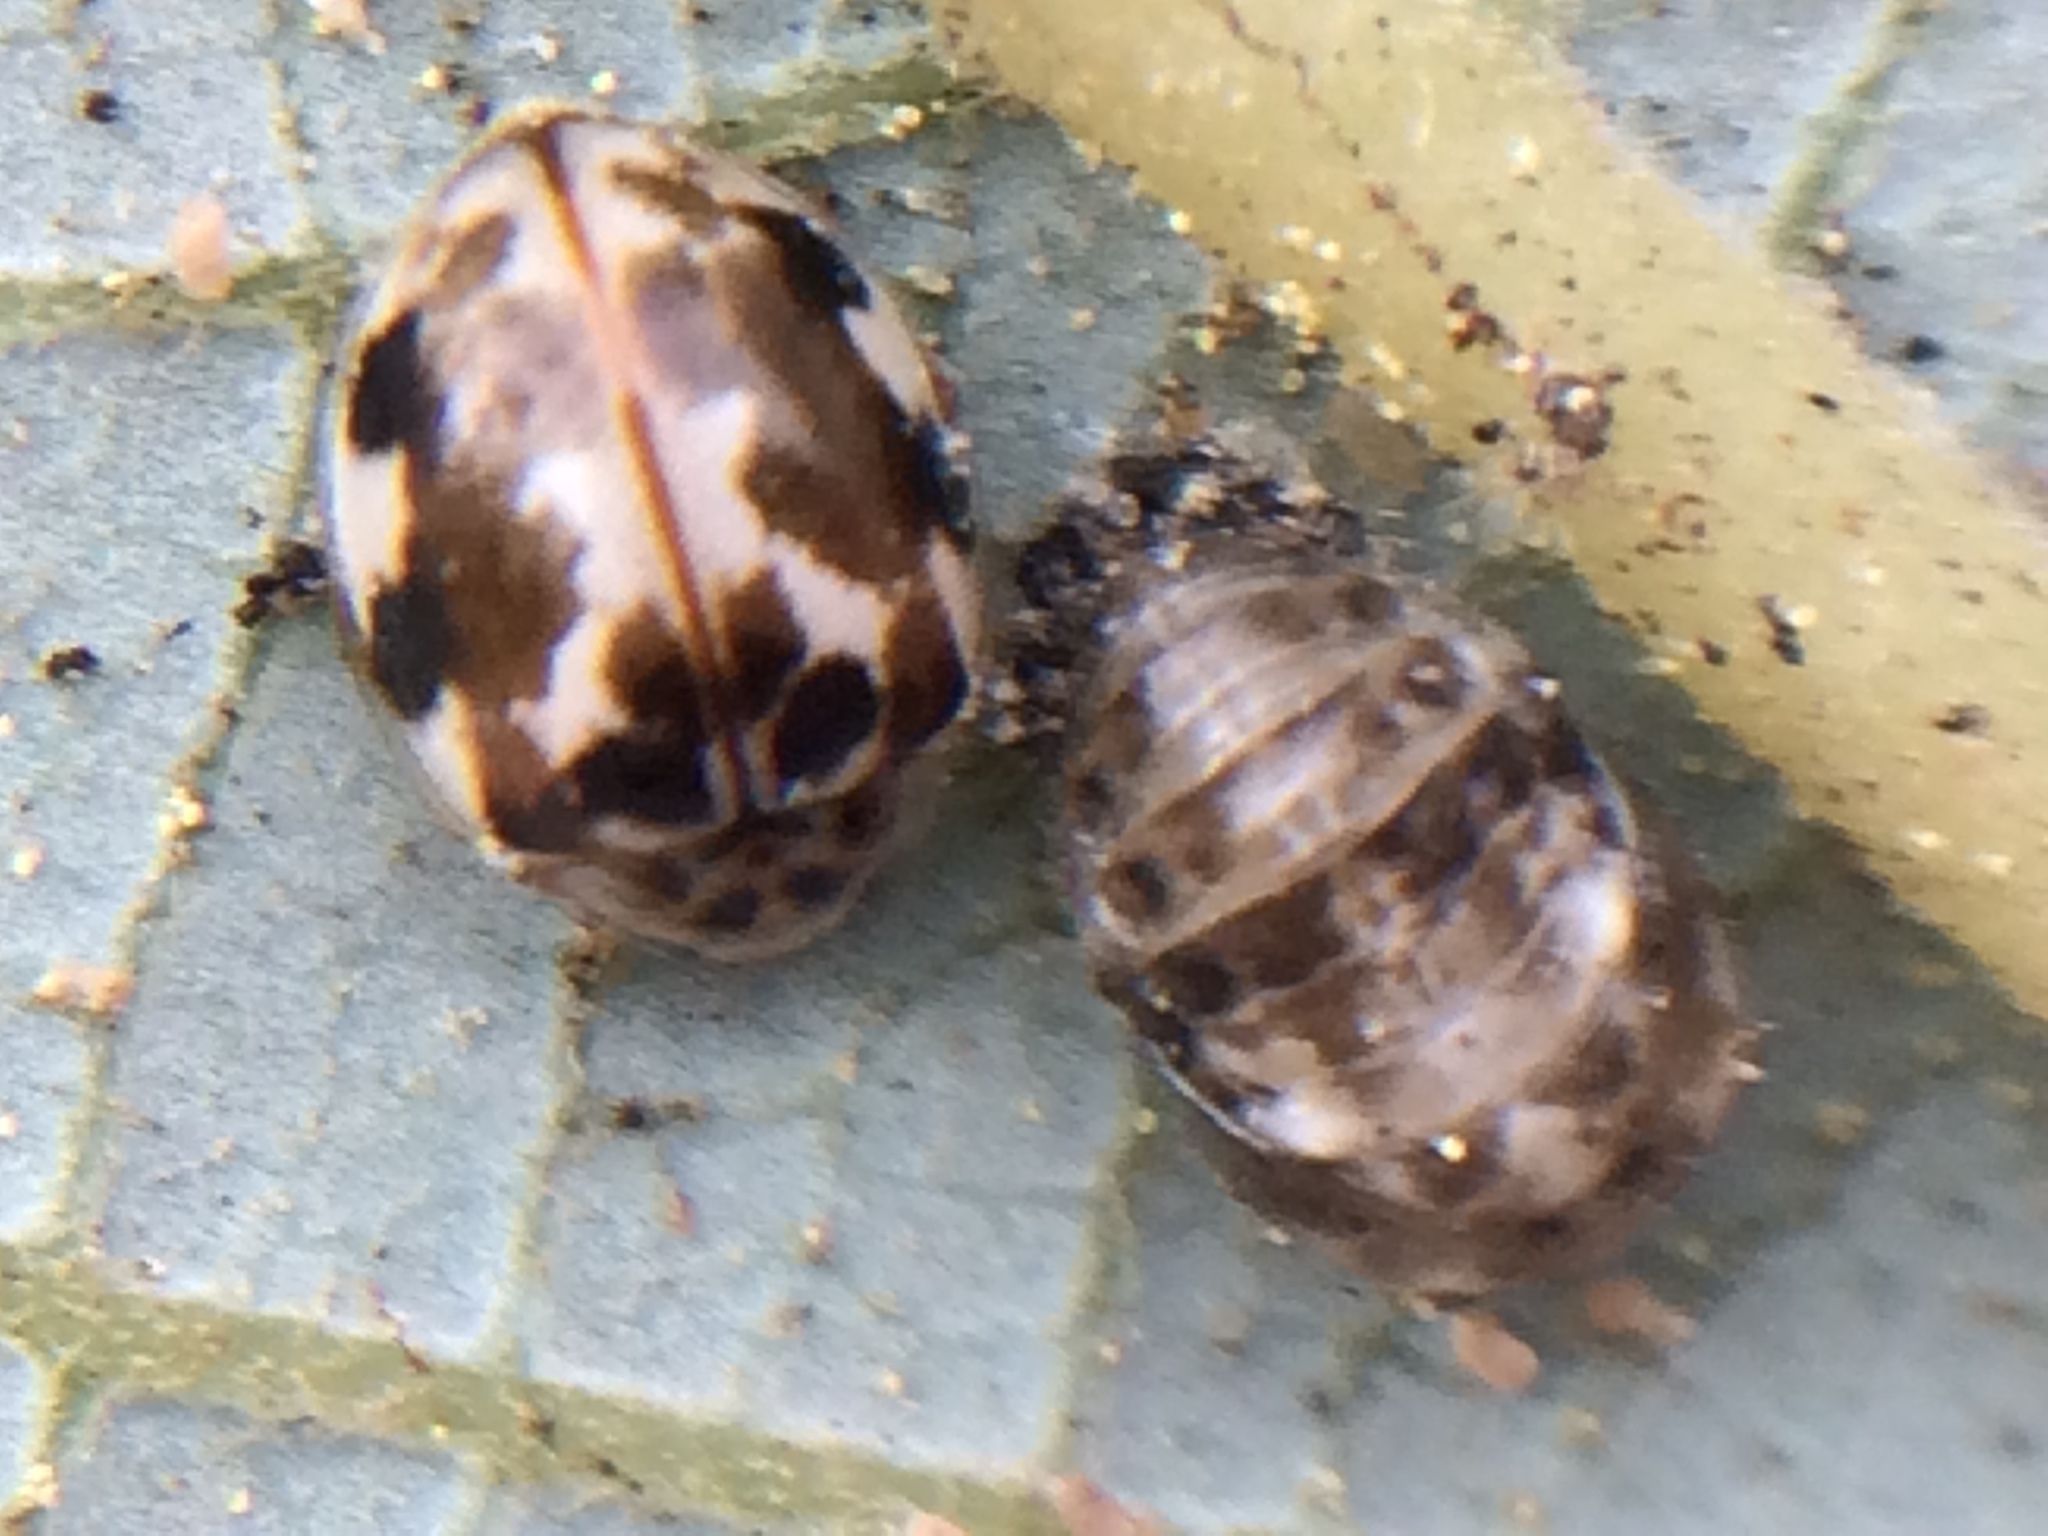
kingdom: Animalia
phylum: Arthropoda
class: Insecta
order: Coleoptera
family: Coccinellidae
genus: Psyllobora
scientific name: Psyllobora vigintimaculata
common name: Ladybird beetle
